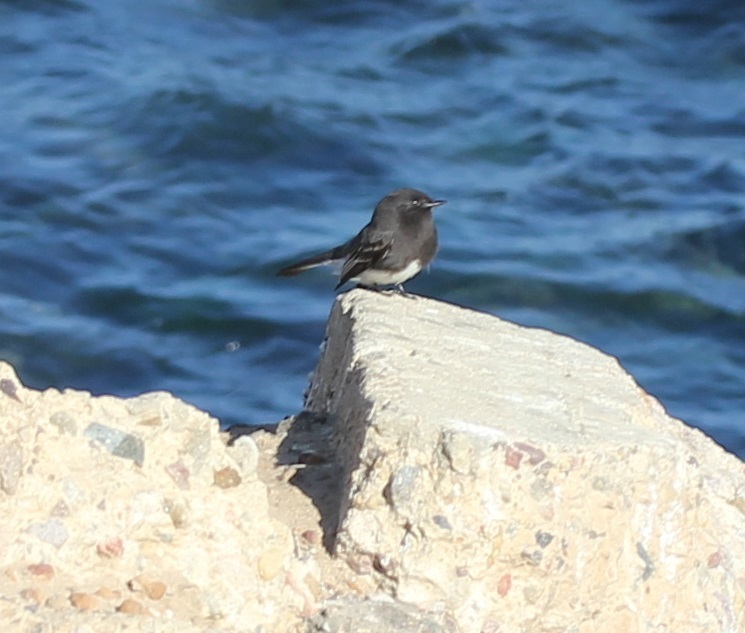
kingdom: Animalia
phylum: Chordata
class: Aves
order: Passeriformes
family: Tyrannidae
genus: Sayornis
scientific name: Sayornis nigricans
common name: Black phoebe
